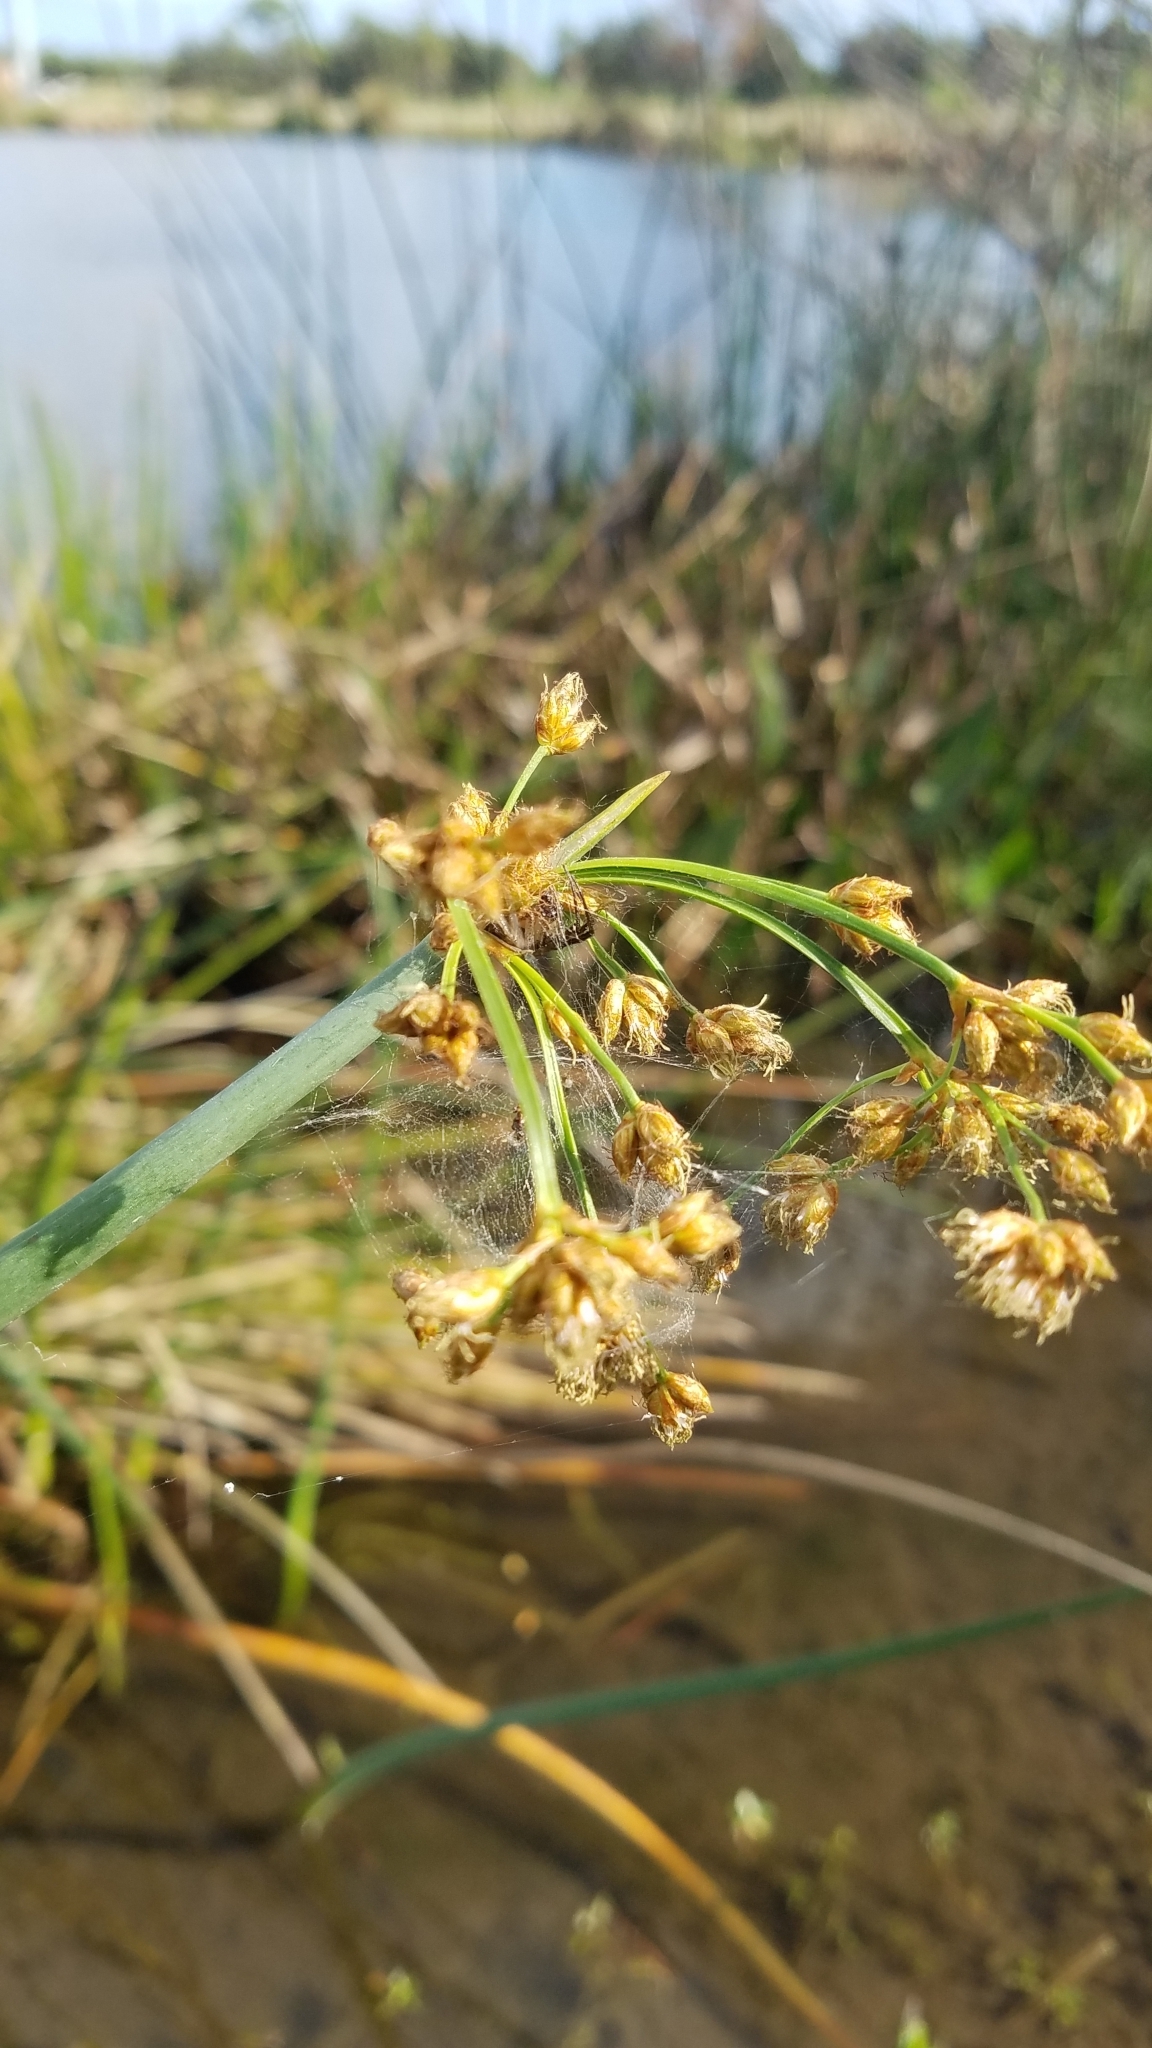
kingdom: Plantae
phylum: Tracheophyta
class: Liliopsida
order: Poales
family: Cyperaceae
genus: Schoenoplectus
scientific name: Schoenoplectus tabernaemontani
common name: Grey club-rush
